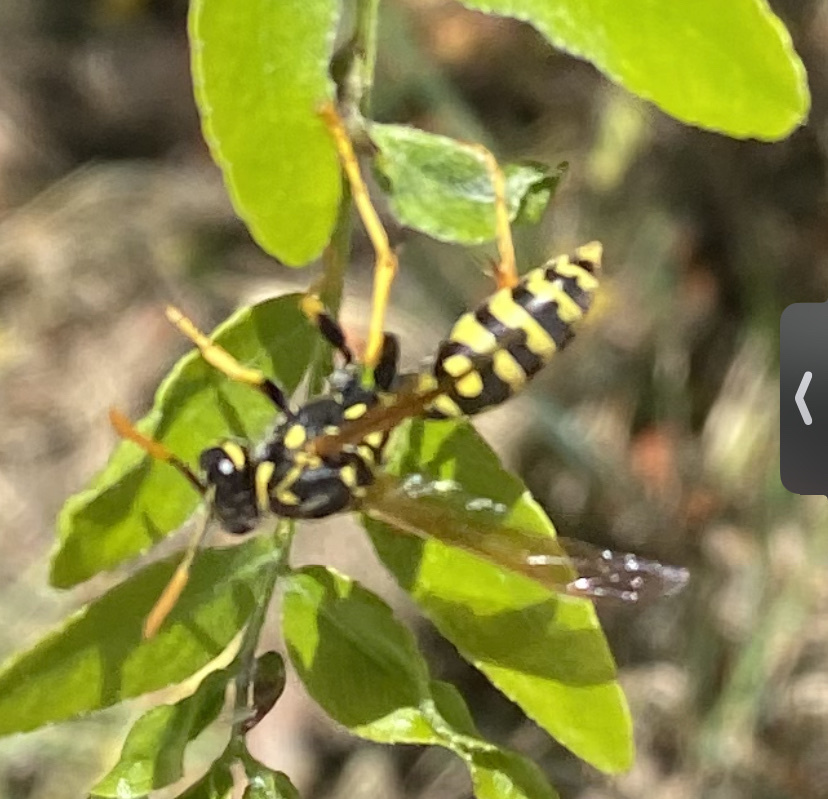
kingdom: Animalia
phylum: Arthropoda
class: Insecta
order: Hymenoptera
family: Eumenidae
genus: Polistes
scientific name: Polistes dominula
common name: Paper wasp
